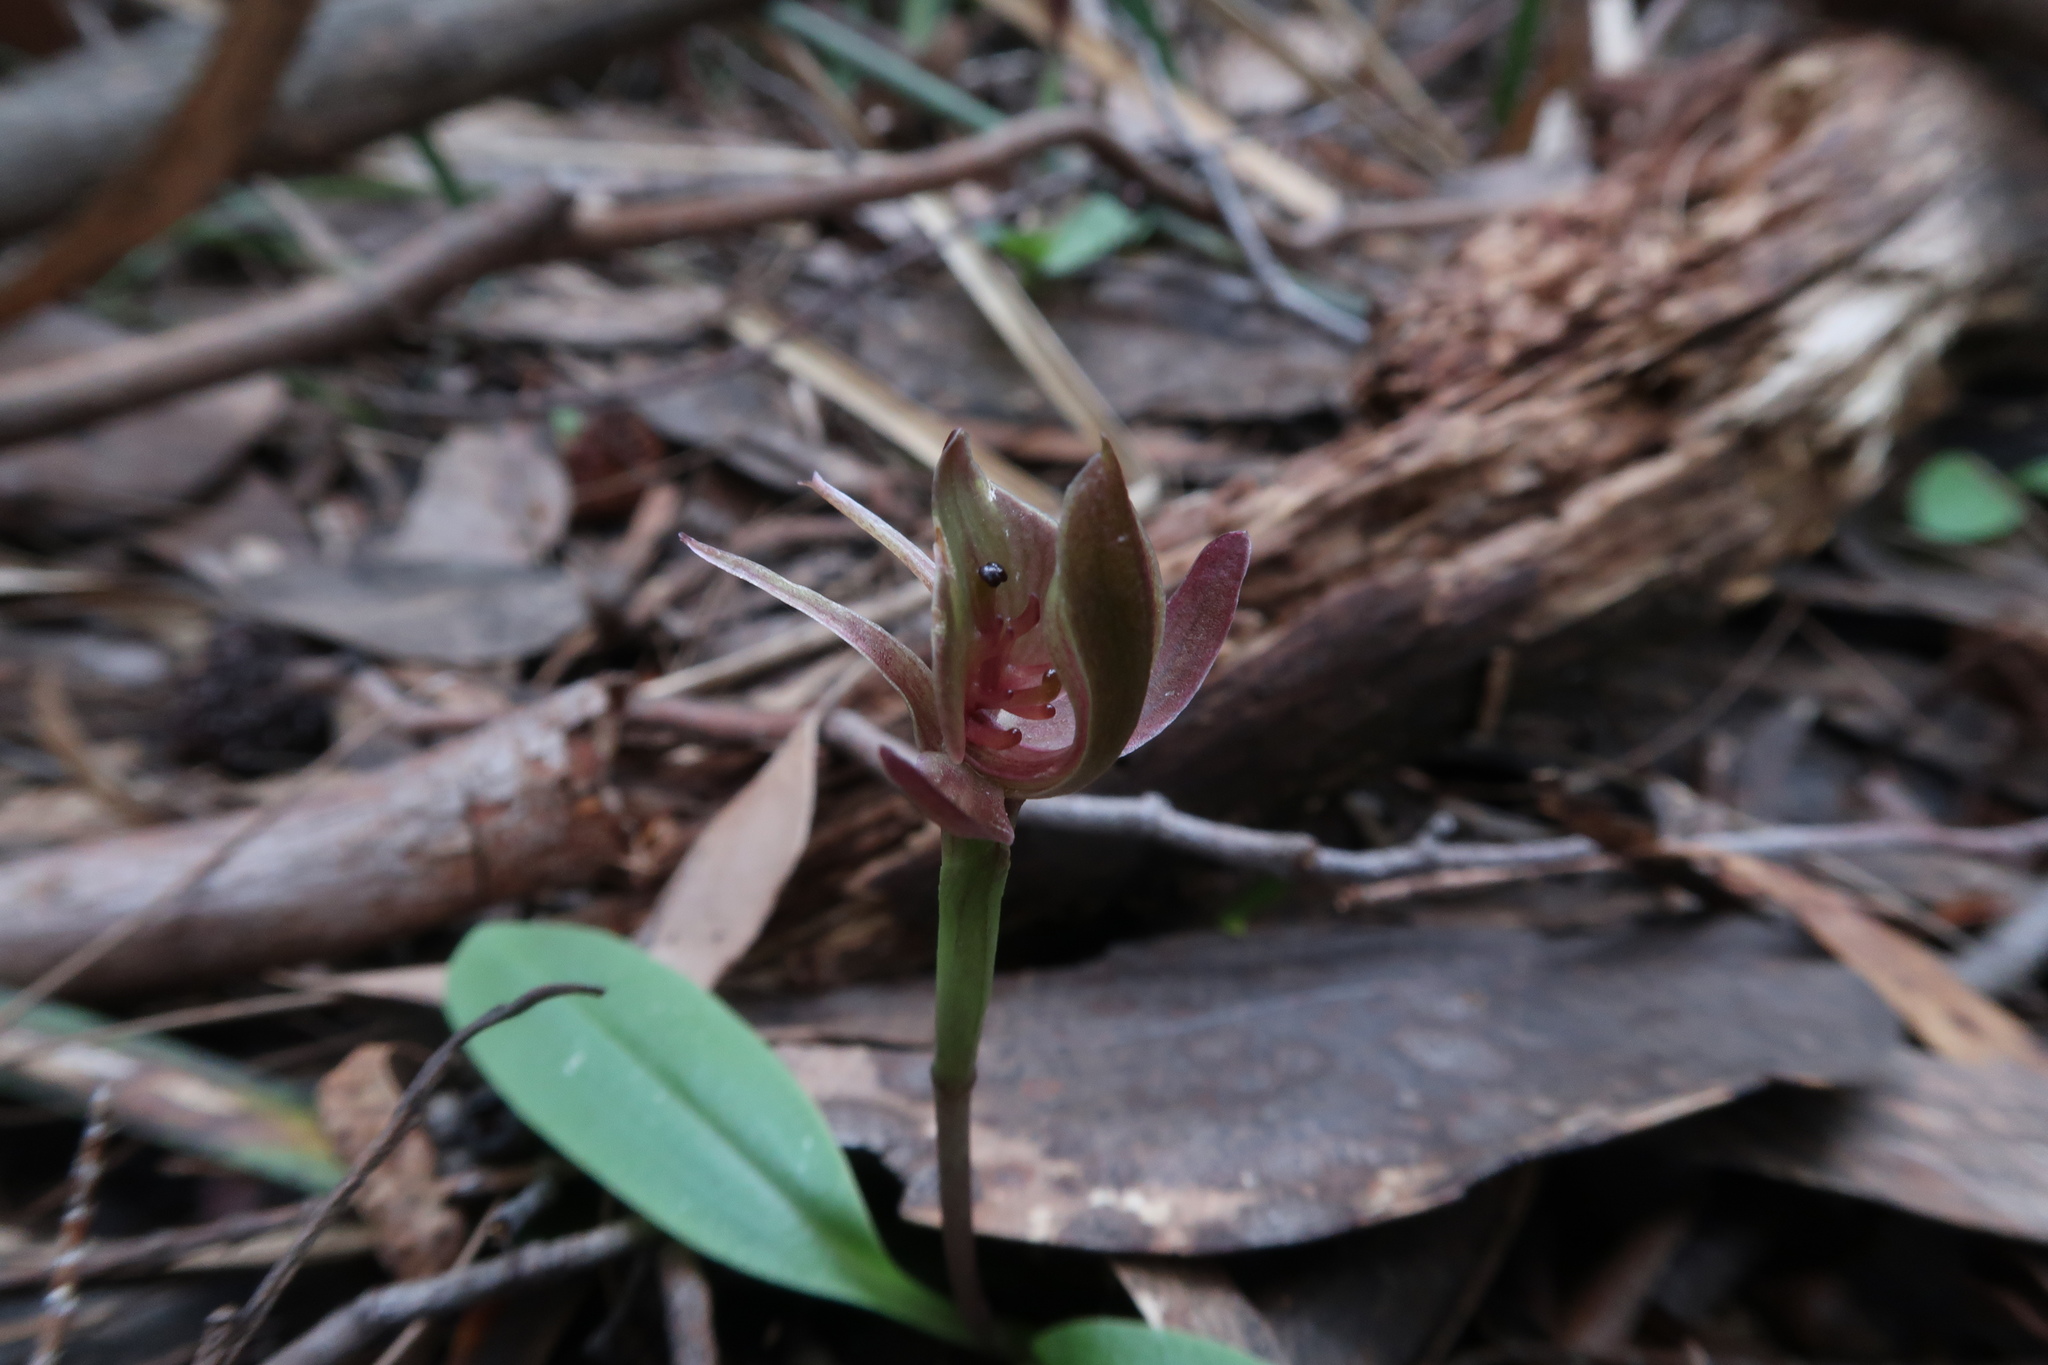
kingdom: Plantae
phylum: Tracheophyta
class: Liliopsida
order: Asparagales
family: Orchidaceae
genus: Chiloglottis
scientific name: Chiloglottis triceratops
